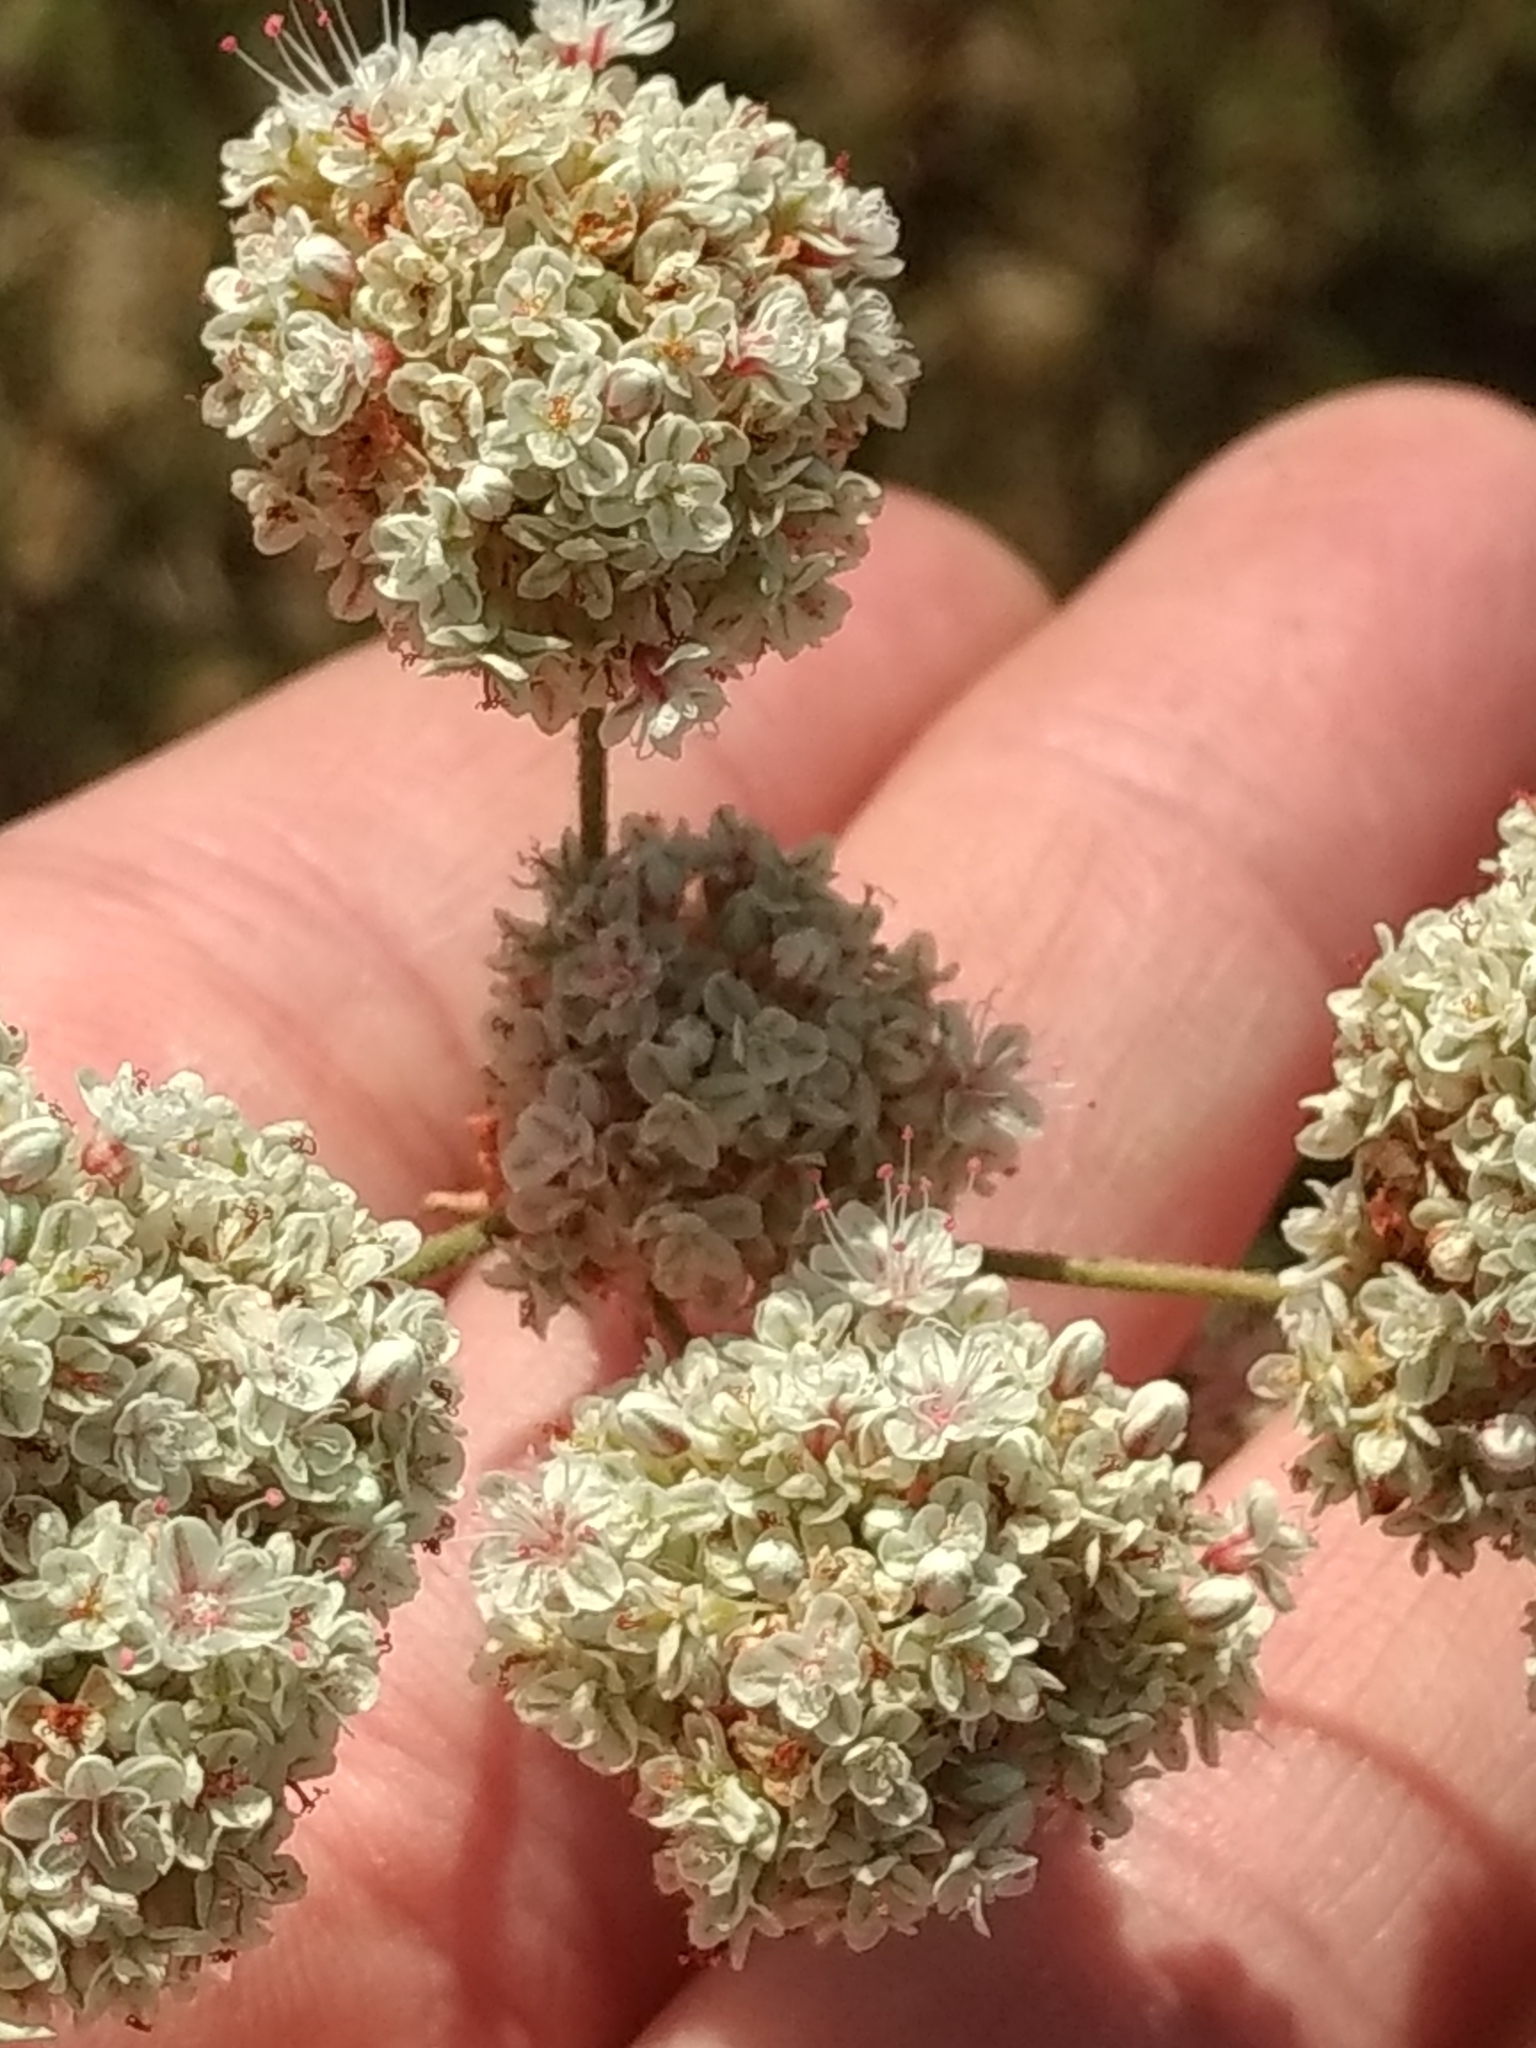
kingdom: Plantae
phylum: Tracheophyta
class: Magnoliopsida
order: Caryophyllales
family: Polygonaceae
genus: Eriogonum
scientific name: Eriogonum fasciculatum
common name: California wild buckwheat
